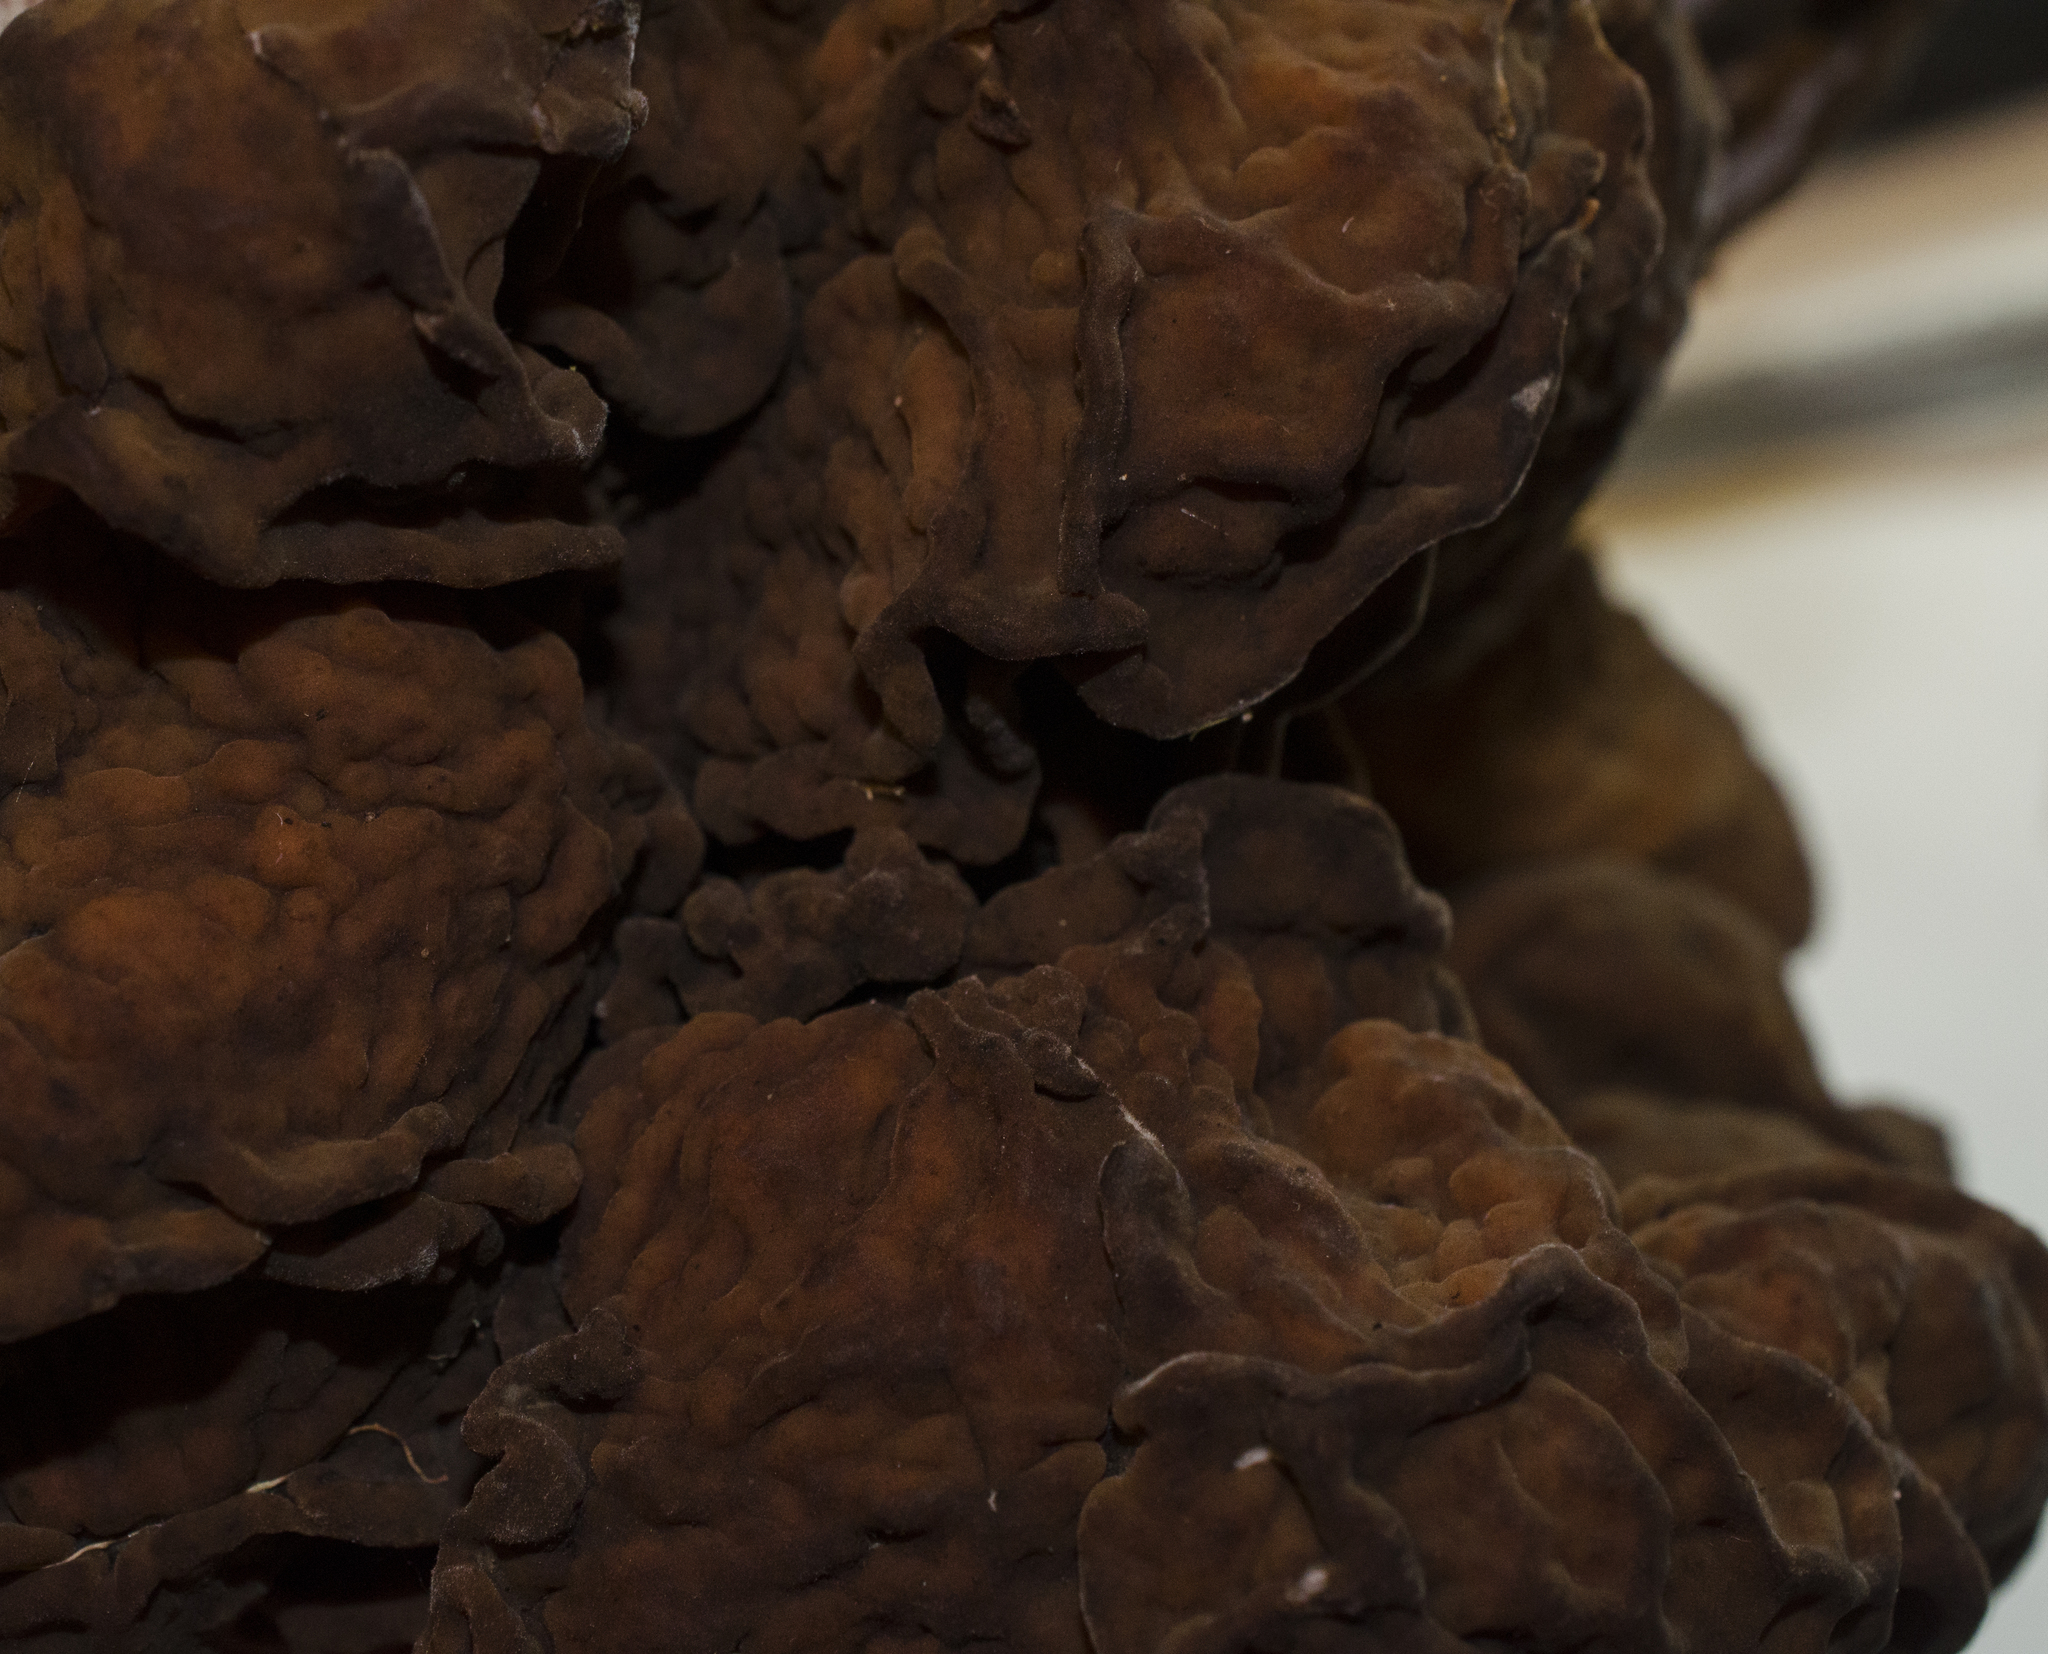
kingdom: Fungi
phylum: Ascomycota
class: Pezizomycetes
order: Pezizales
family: Discinaceae
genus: Gyromitra
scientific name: Gyromitra esculenta
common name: False morel
